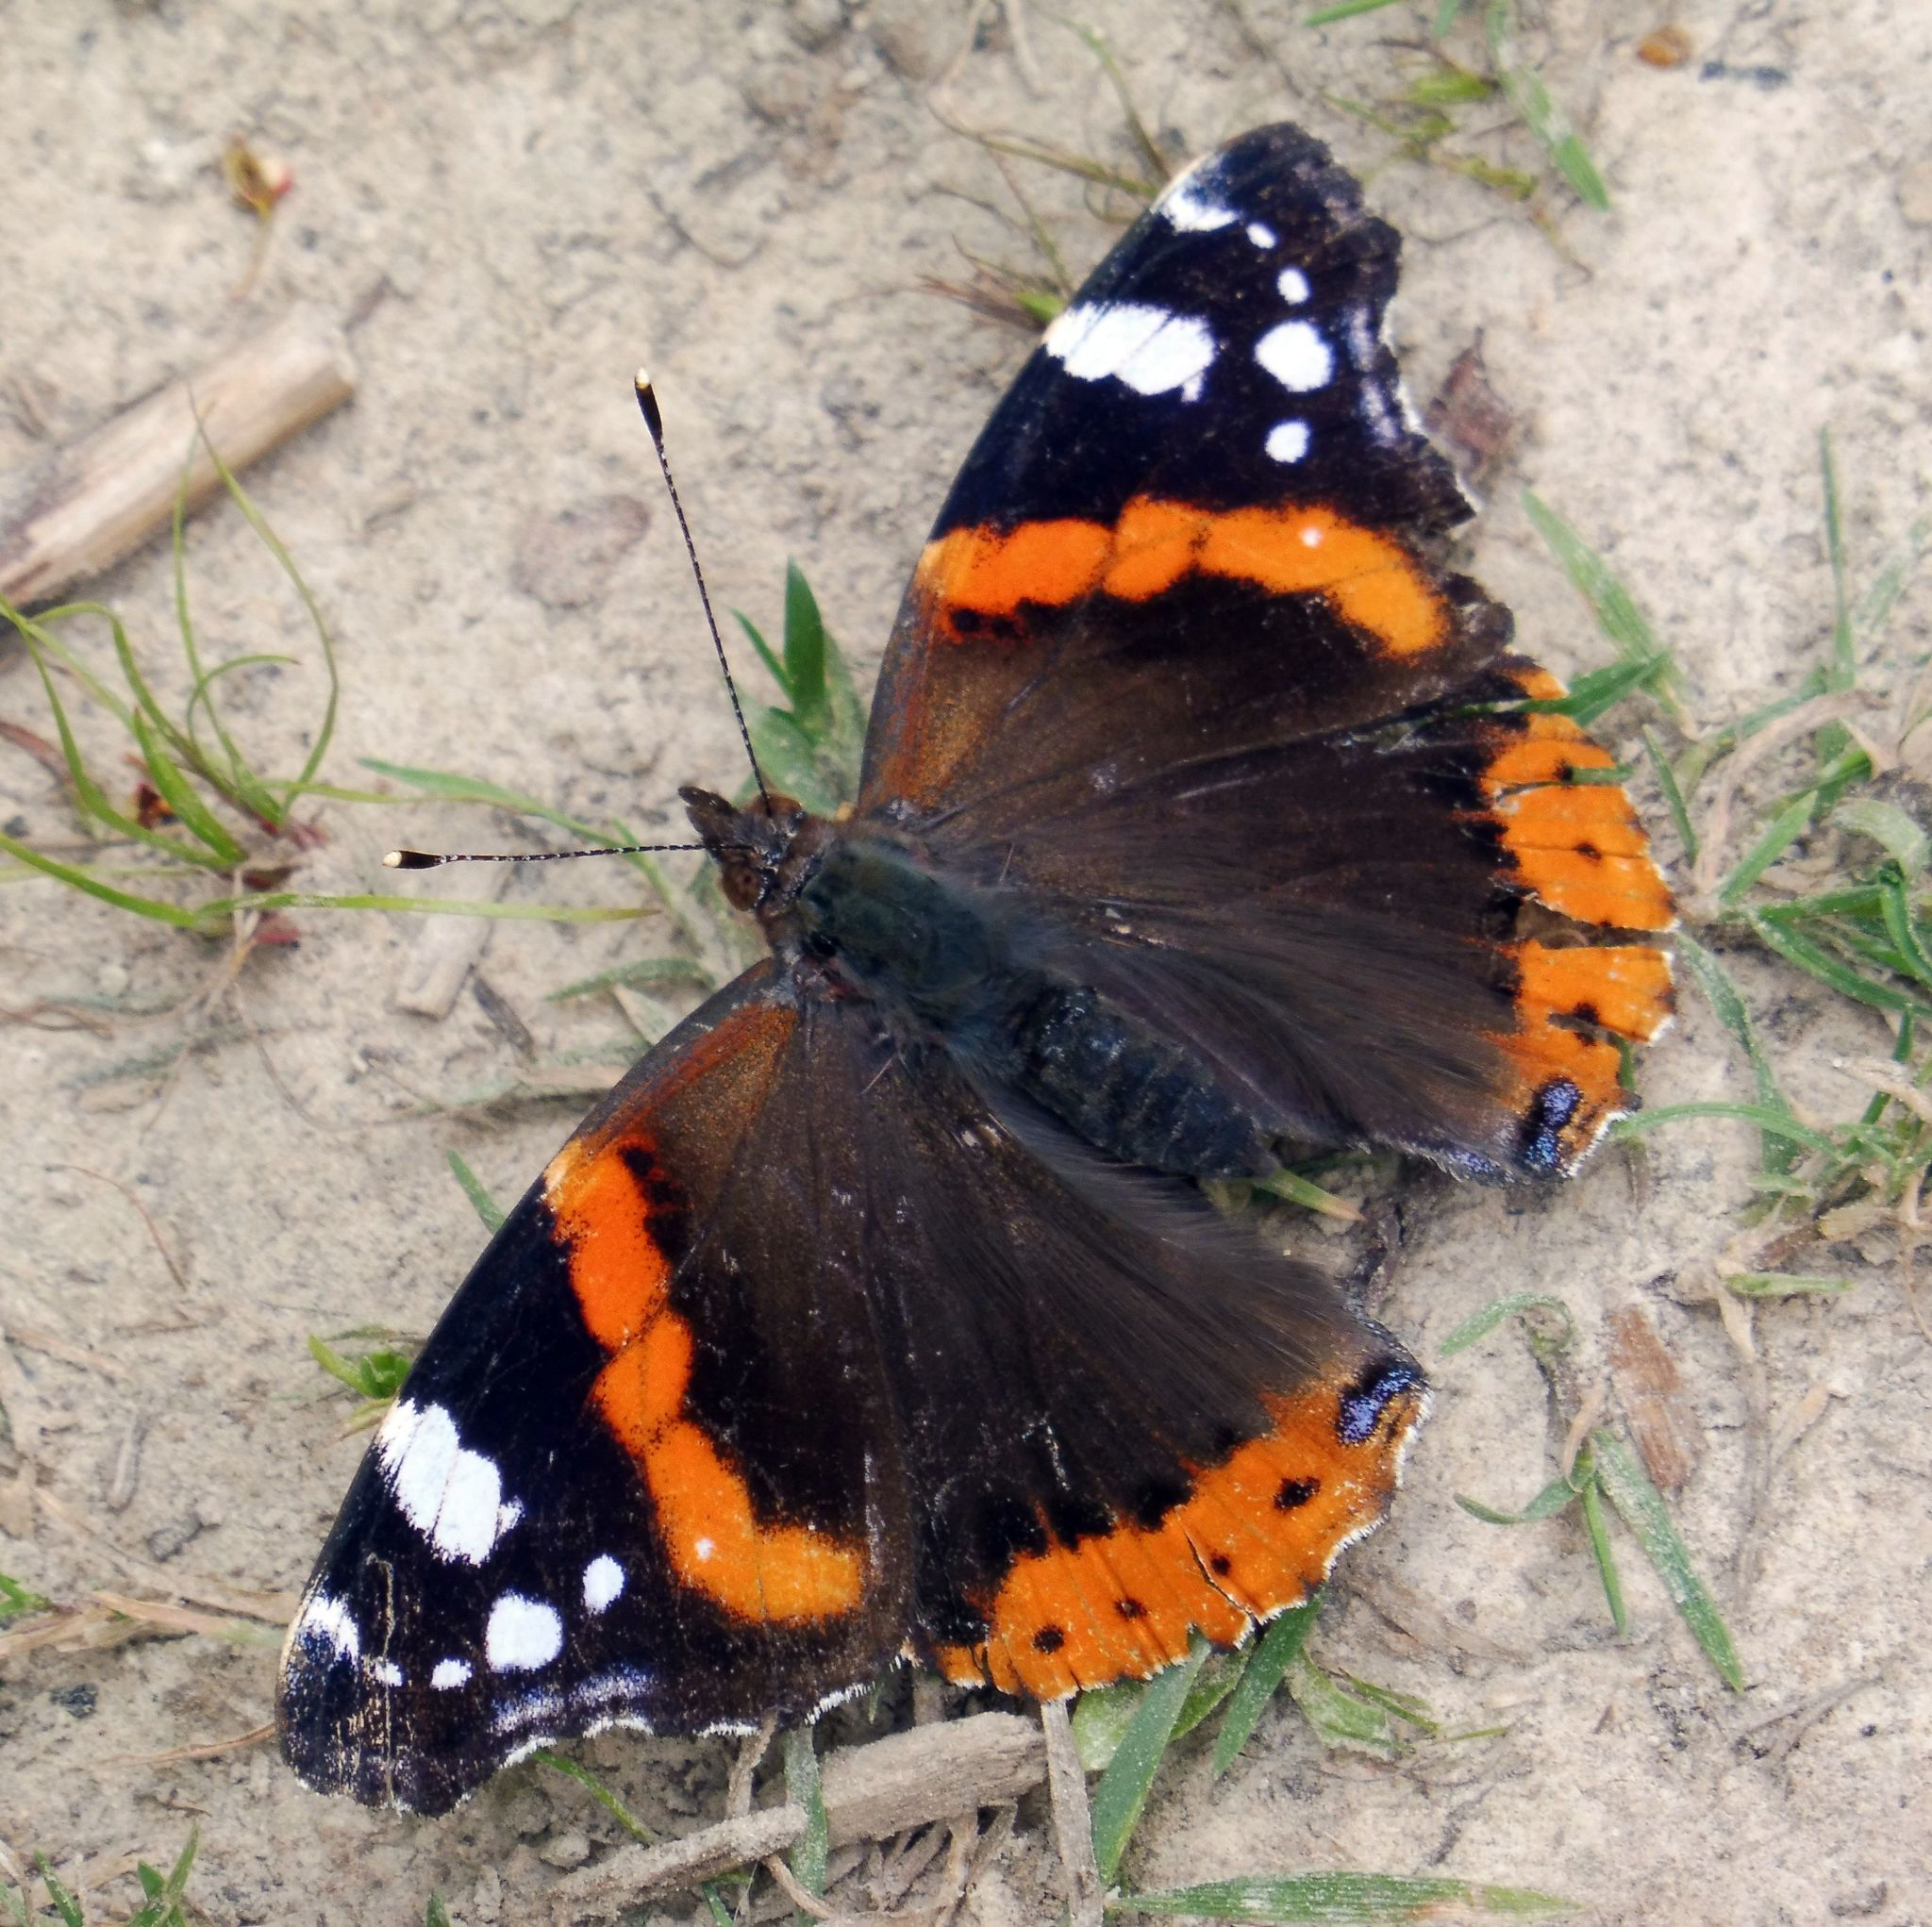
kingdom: Animalia
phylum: Arthropoda
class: Insecta
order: Lepidoptera
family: Nymphalidae
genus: Vanessa
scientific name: Vanessa atalanta
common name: Red admiral
